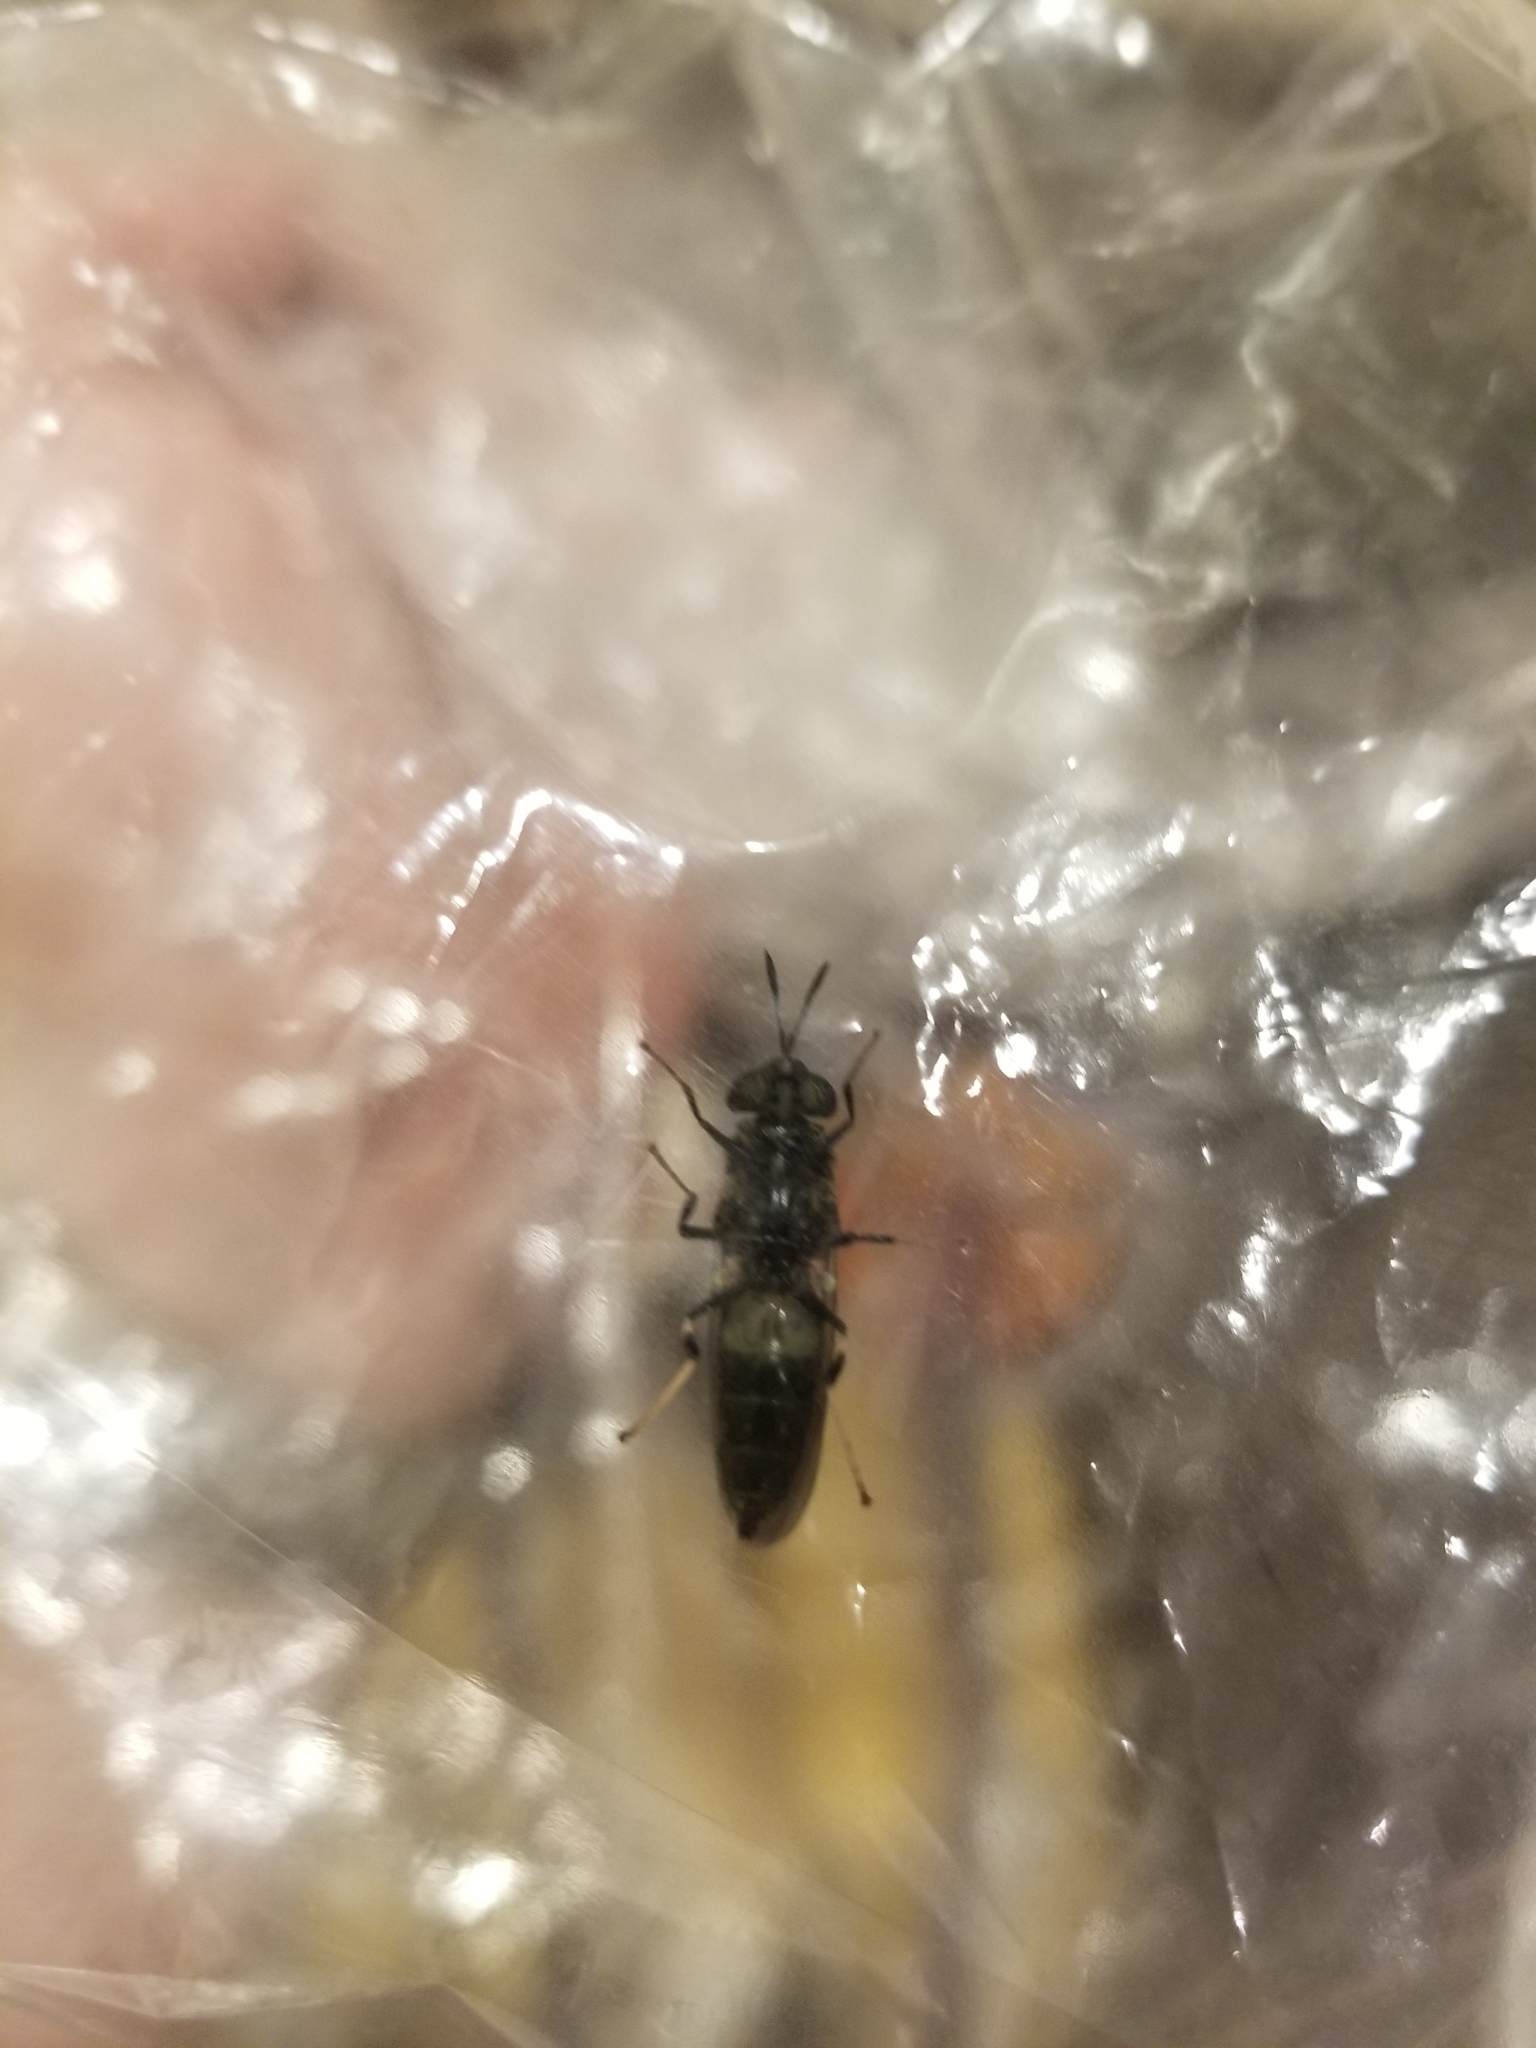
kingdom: Animalia
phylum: Arthropoda
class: Insecta
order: Diptera
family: Stratiomyidae
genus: Hermetia
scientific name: Hermetia illucens
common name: Black soldier fly
